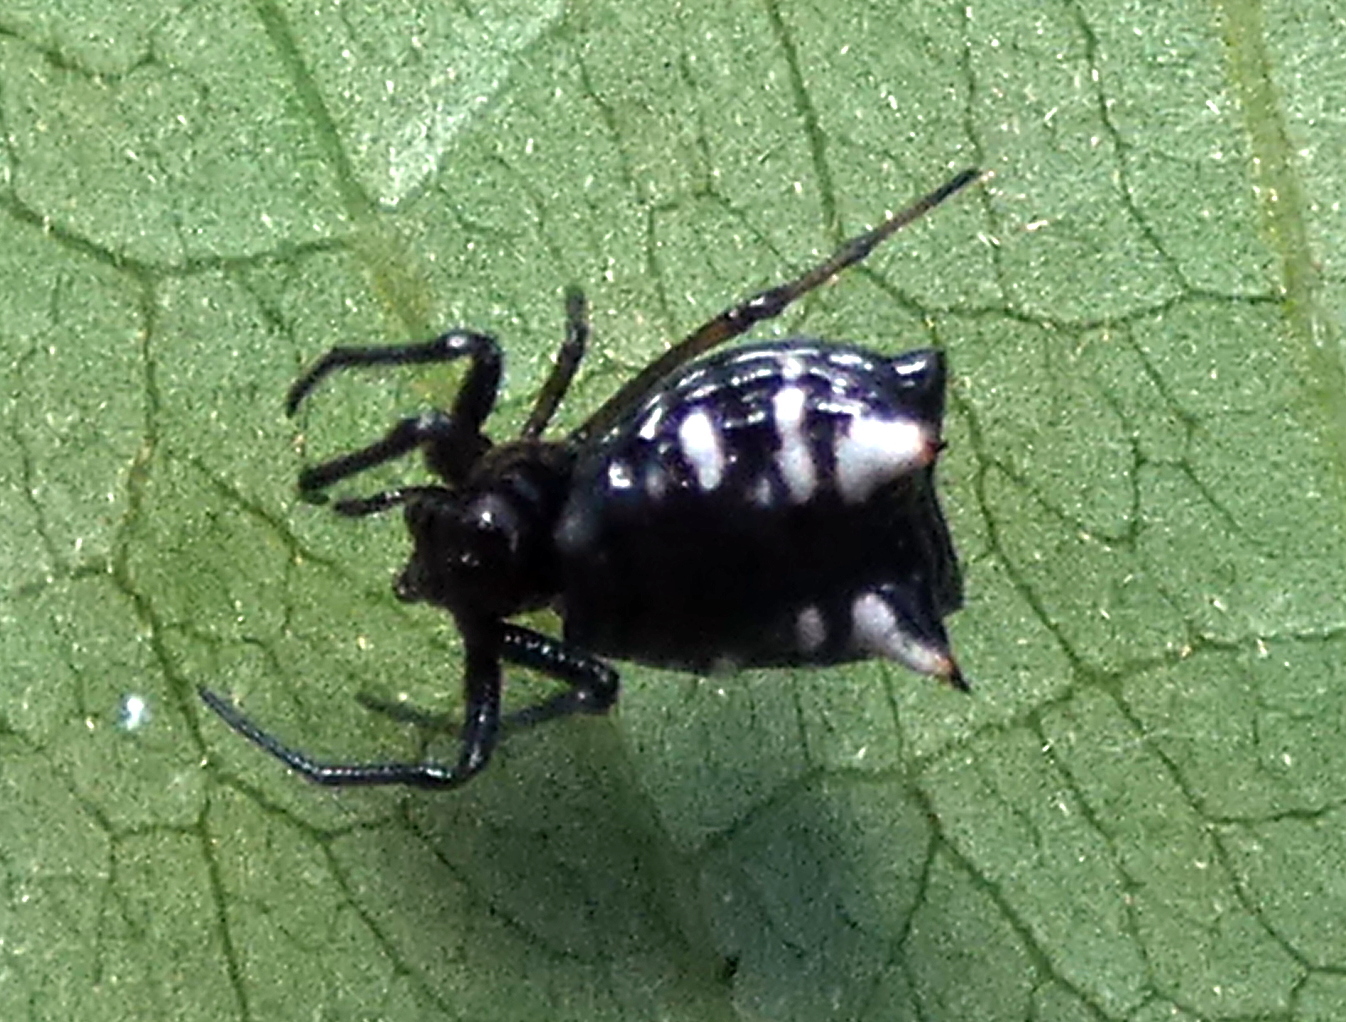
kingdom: Animalia
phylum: Arthropoda
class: Arachnida
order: Araneae
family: Araneidae
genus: Micrathena
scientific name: Micrathena patruelis
